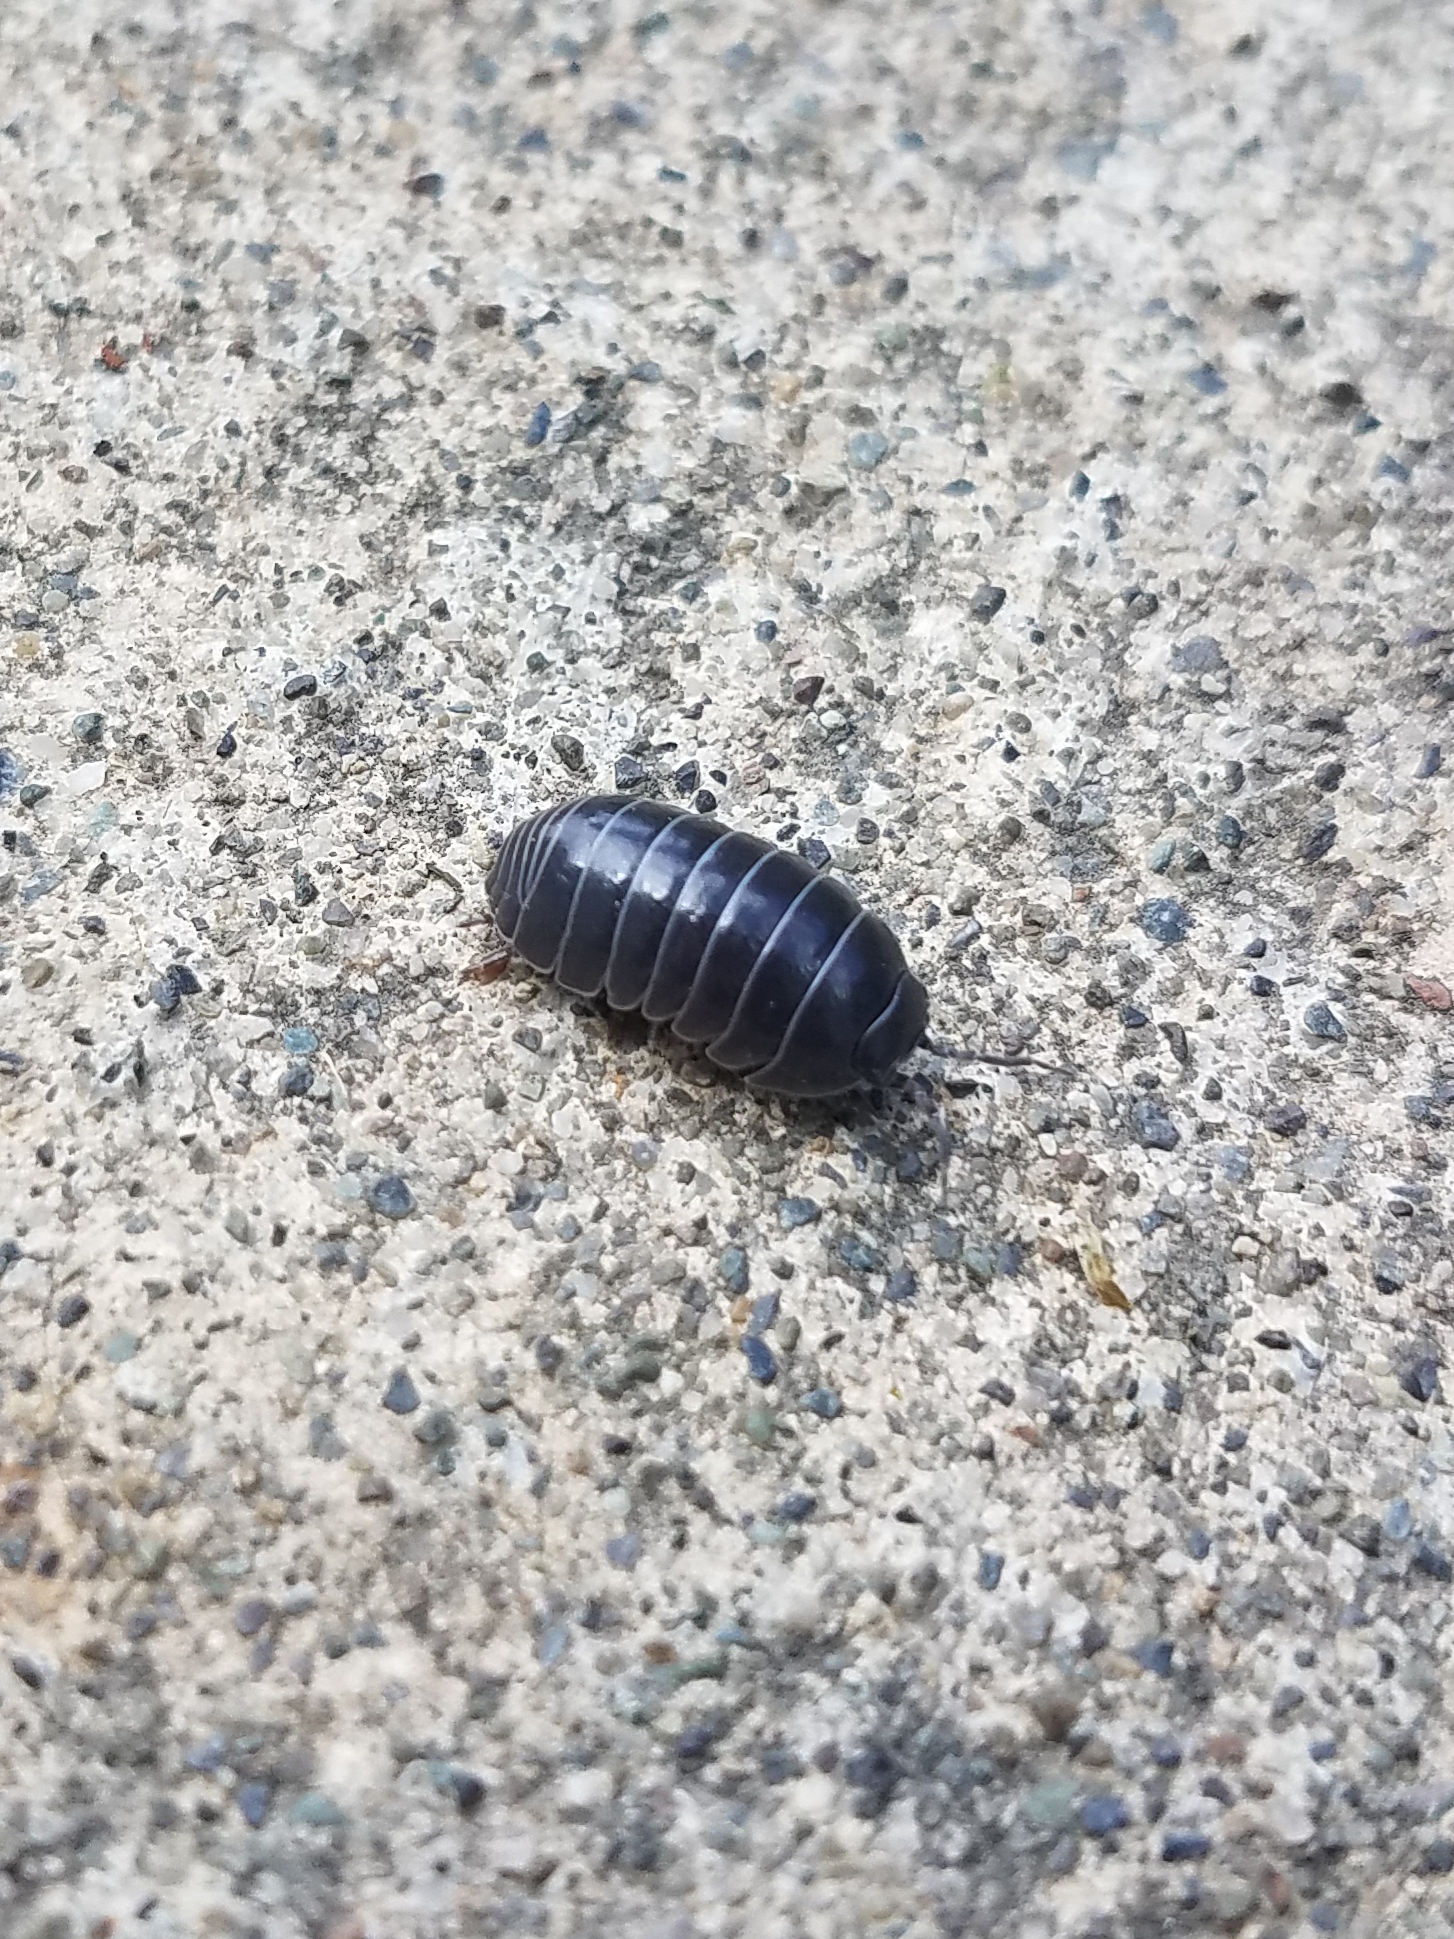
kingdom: Animalia
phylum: Arthropoda
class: Malacostraca
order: Isopoda
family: Armadillidiidae
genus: Armadillidium
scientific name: Armadillidium vulgare
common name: Common pill woodlouse
